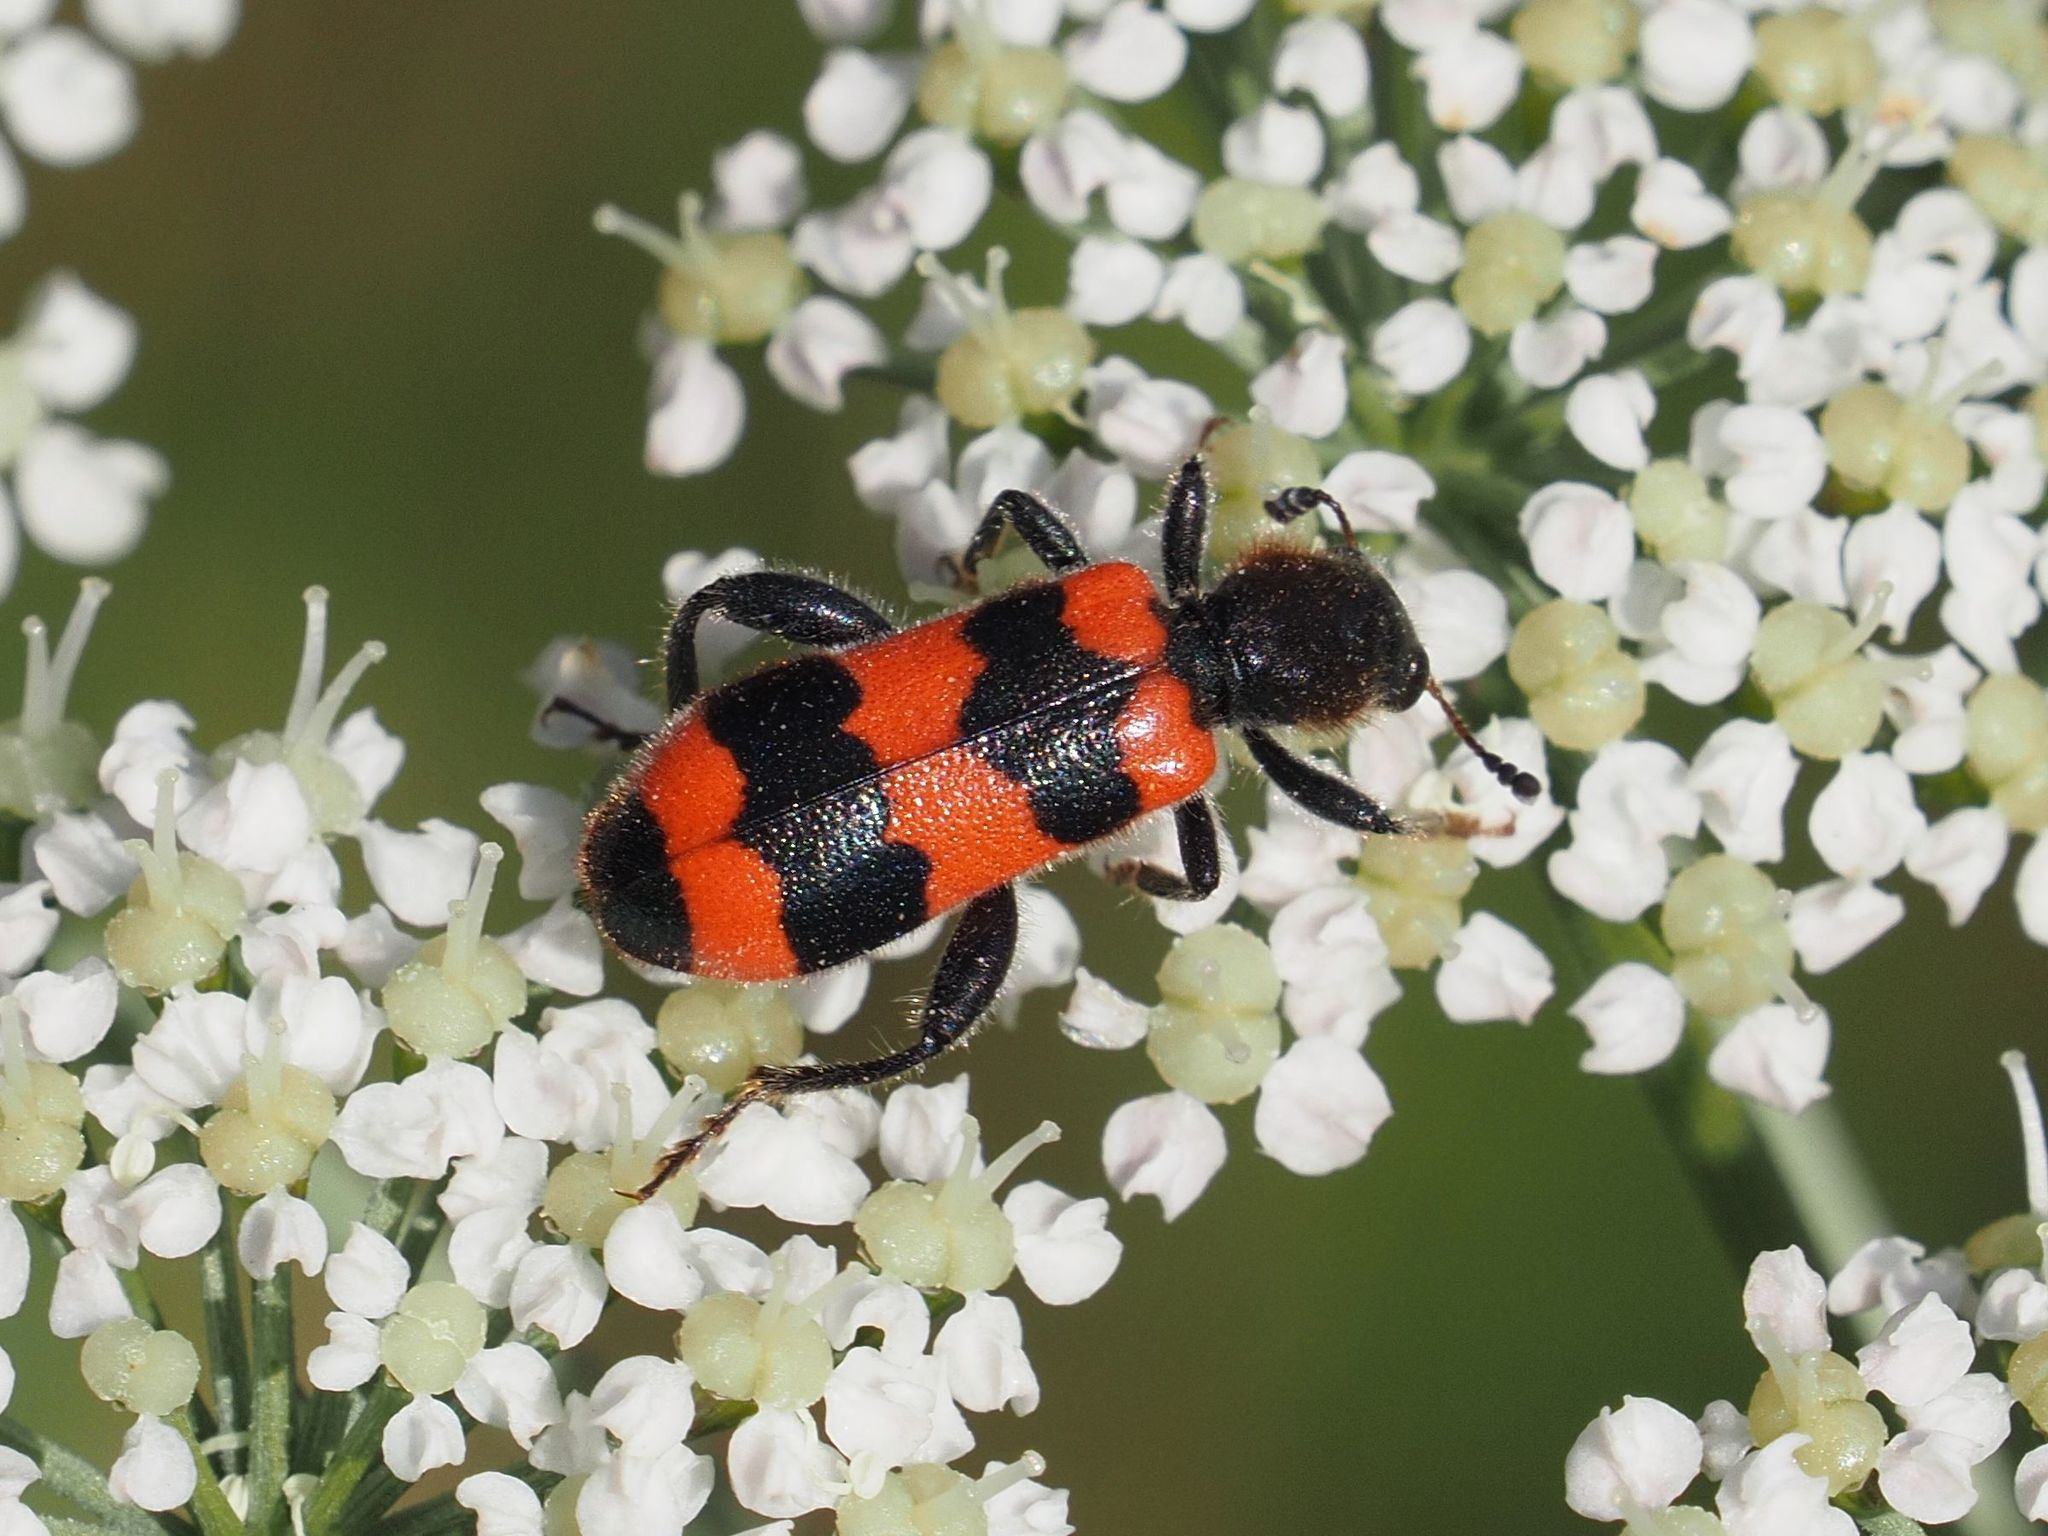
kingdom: Animalia
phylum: Arthropoda
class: Insecta
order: Coleoptera
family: Cleridae
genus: Trichodes
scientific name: Trichodes apiarius
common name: Bee-eating beetle
